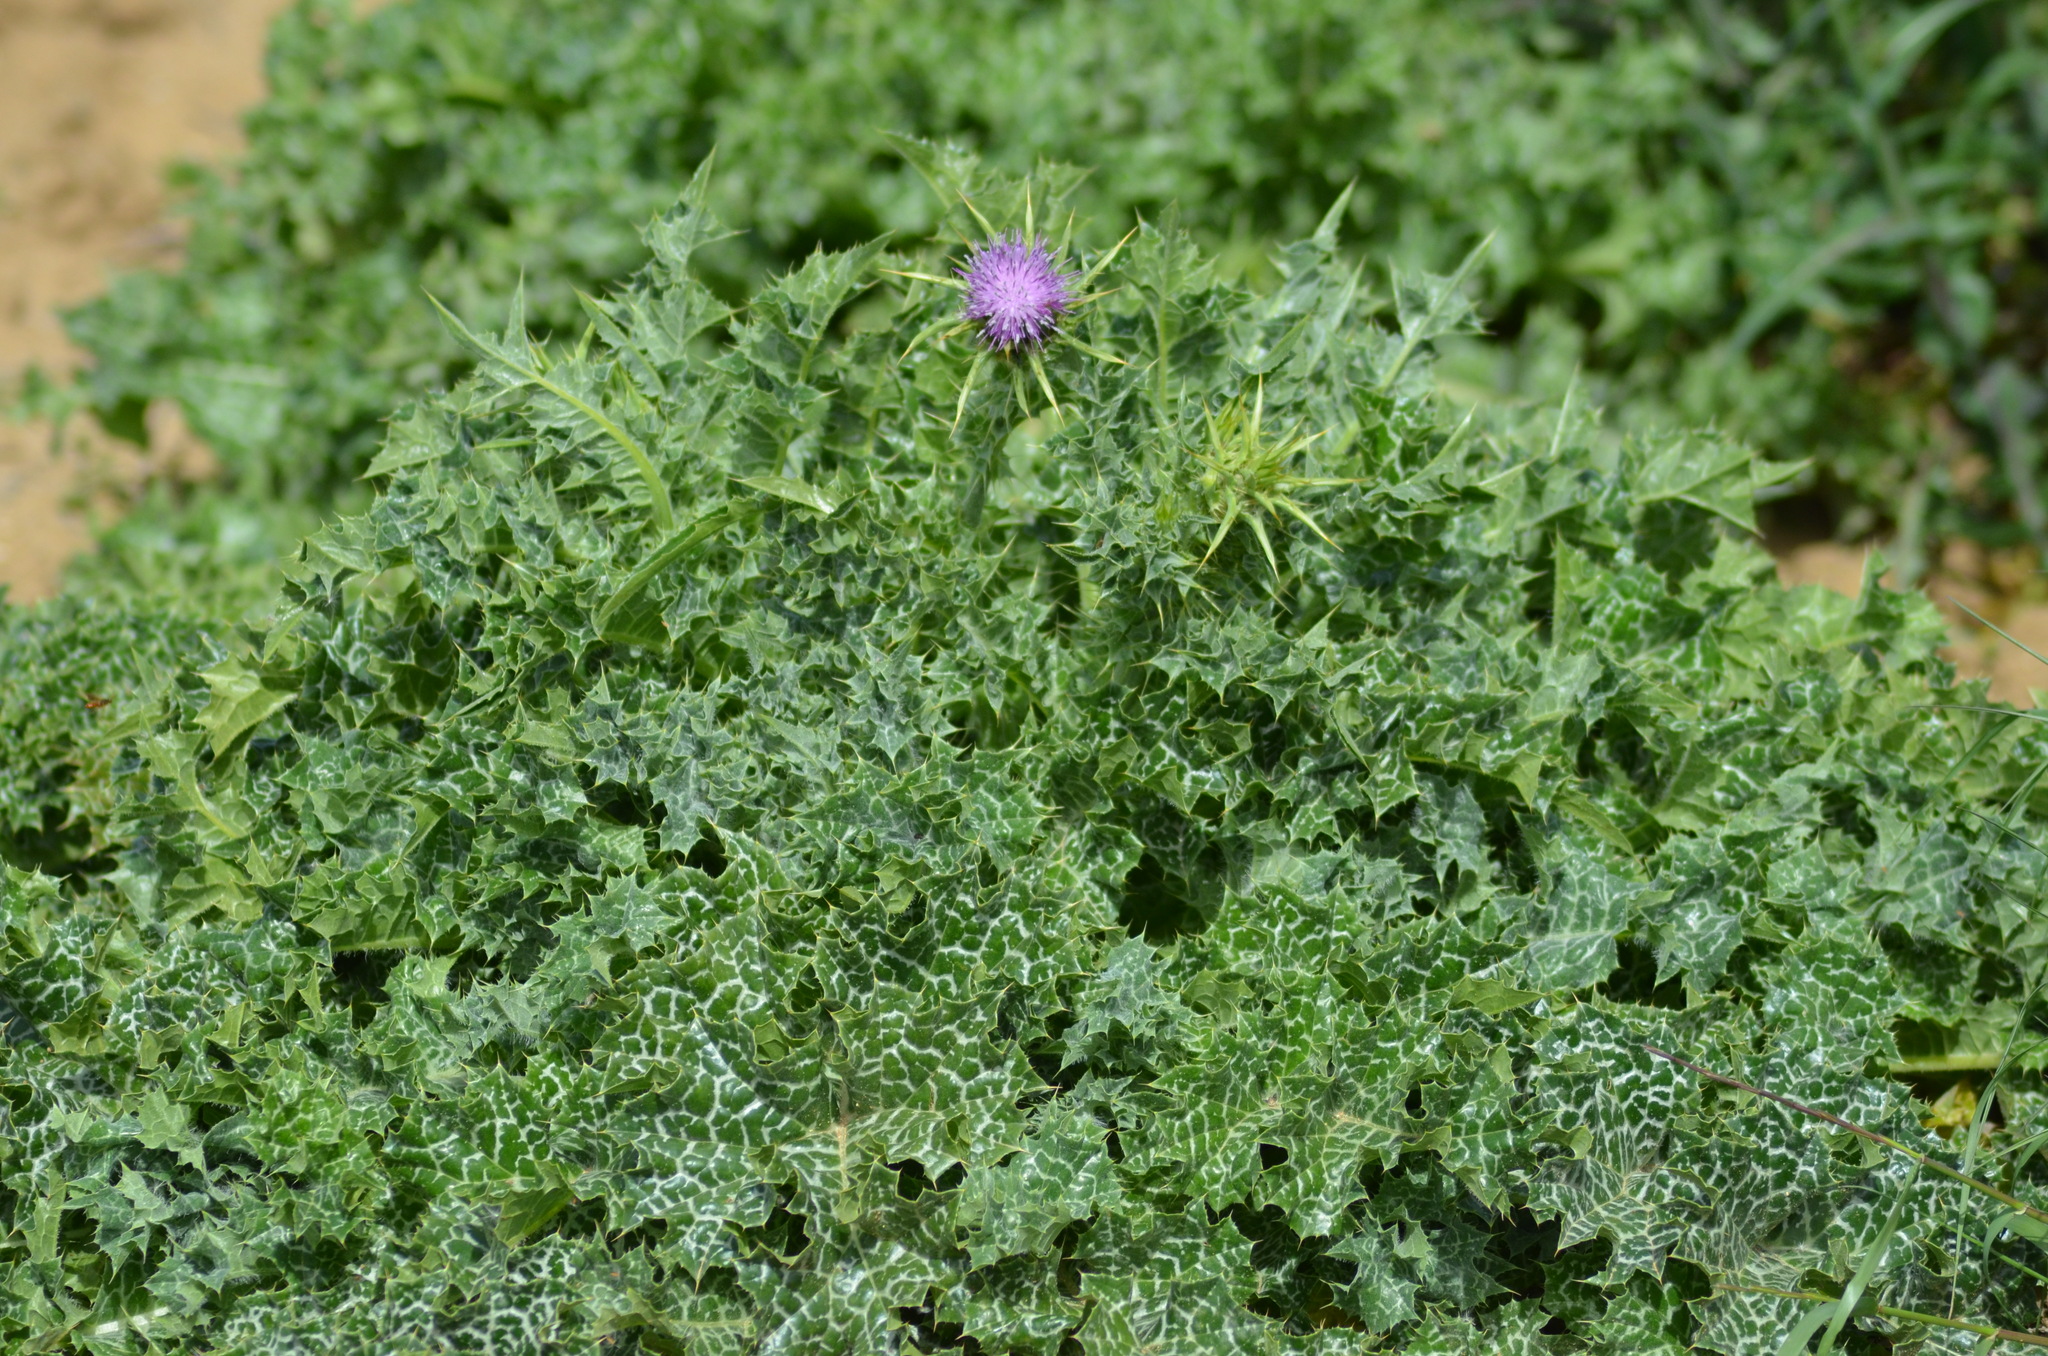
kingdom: Plantae
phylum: Tracheophyta
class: Magnoliopsida
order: Asterales
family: Asteraceae
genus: Silybum
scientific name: Silybum marianum
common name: Milk thistle
